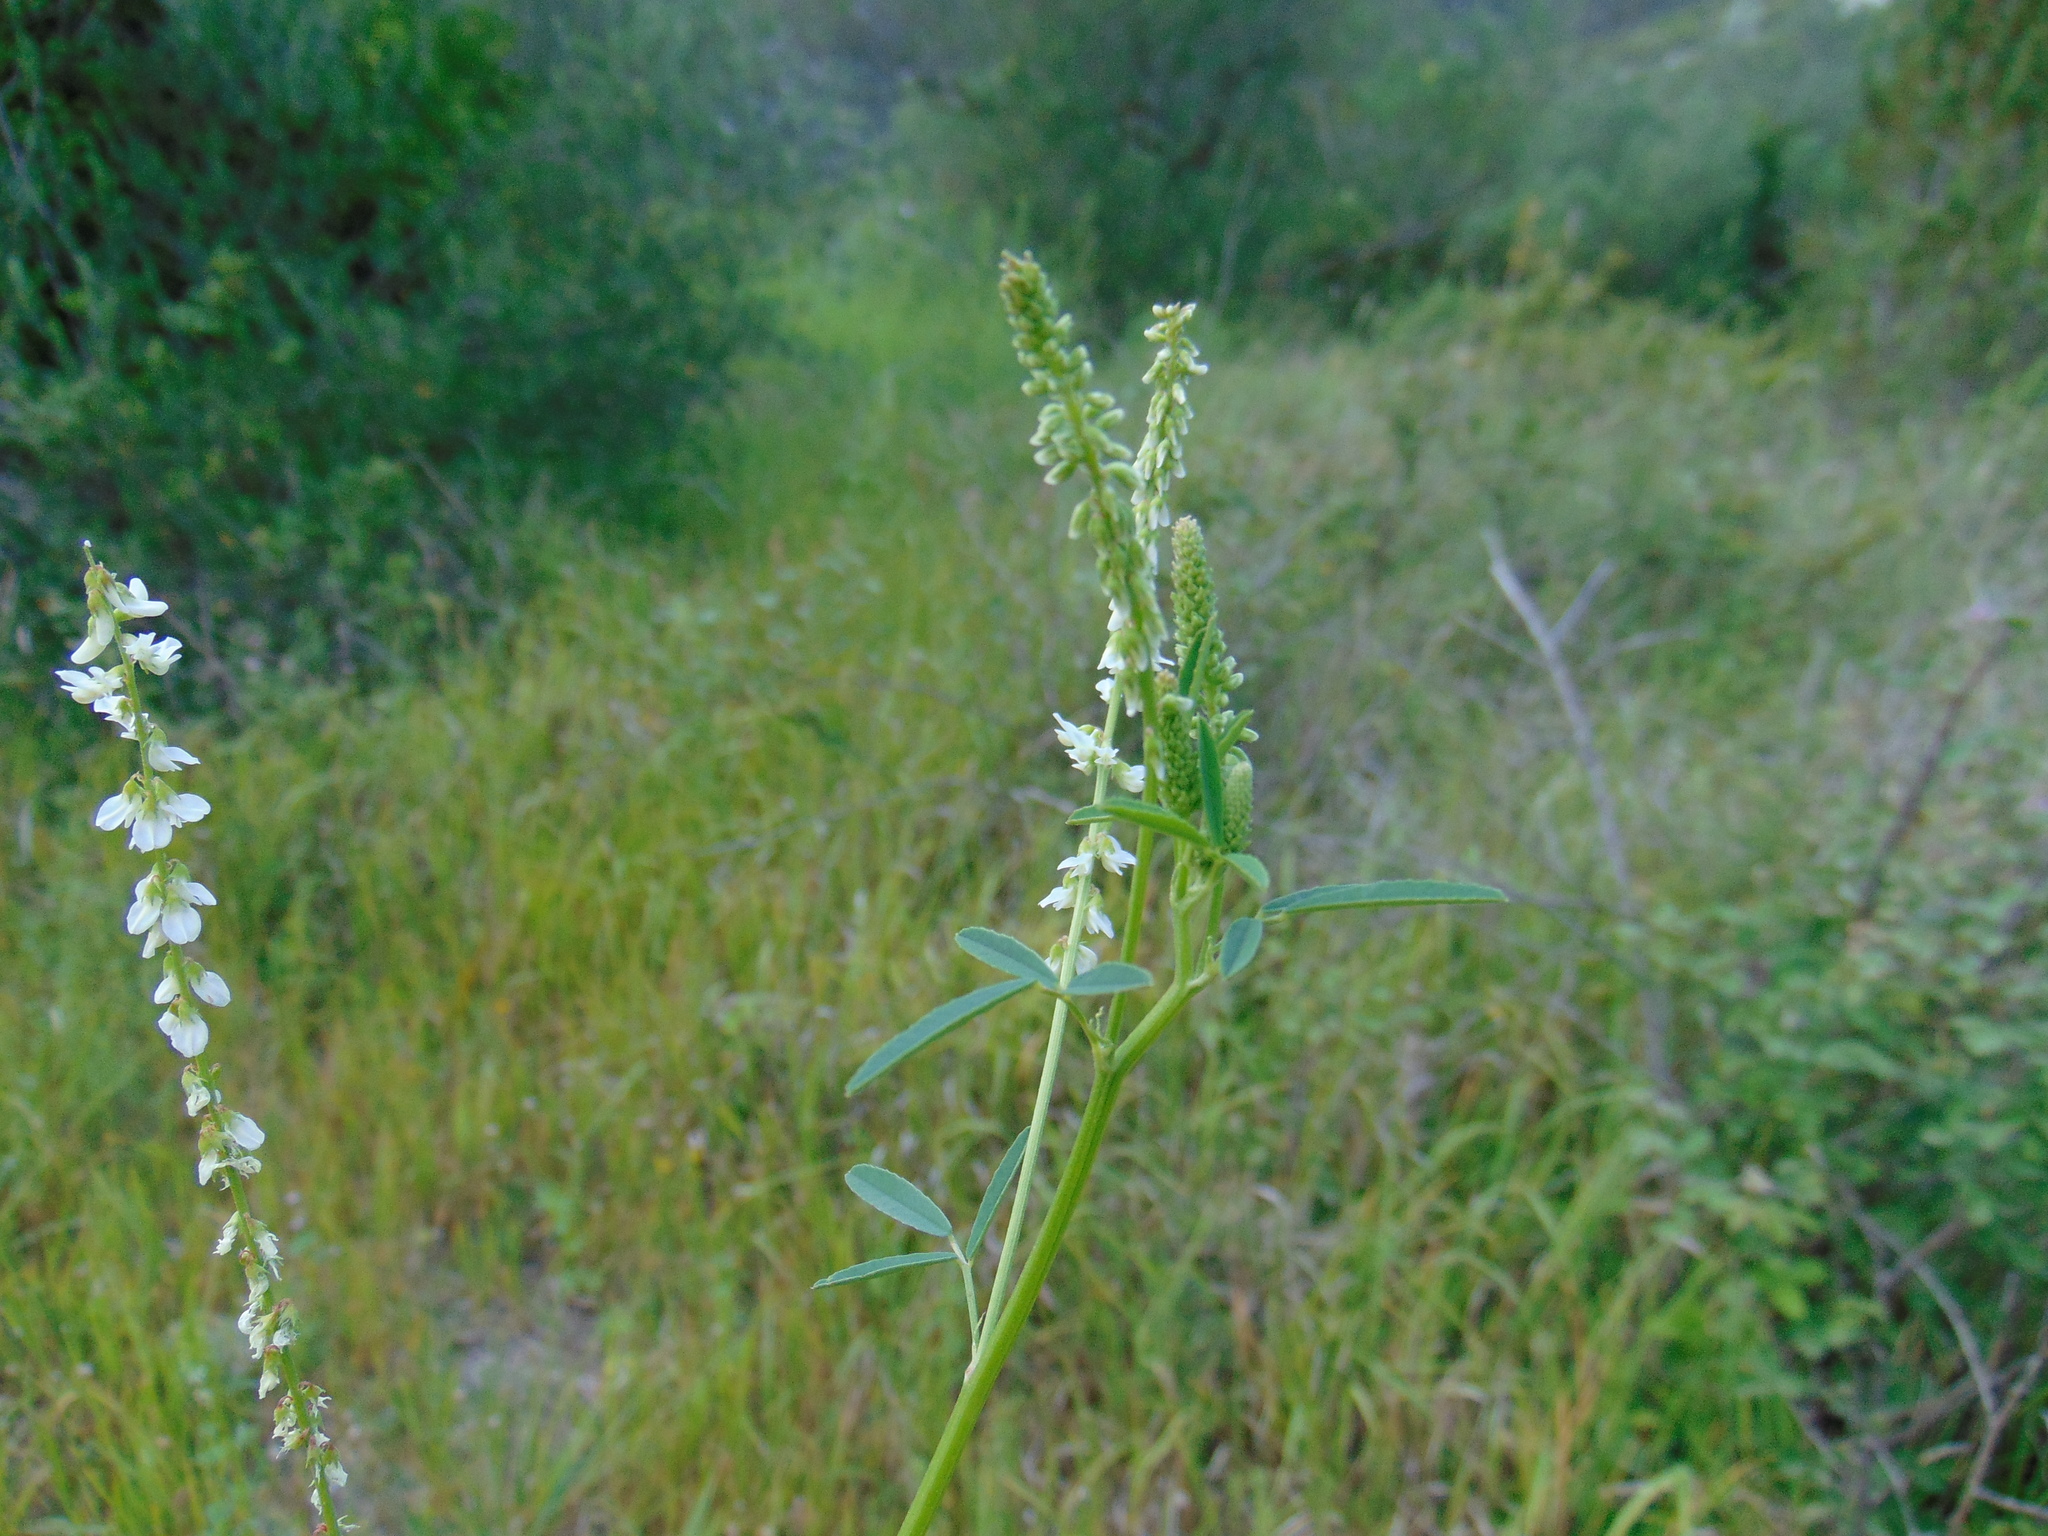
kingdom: Plantae
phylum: Tracheophyta
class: Magnoliopsida
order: Fabales
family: Fabaceae
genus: Melilotus
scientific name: Melilotus albus
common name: White melilot
